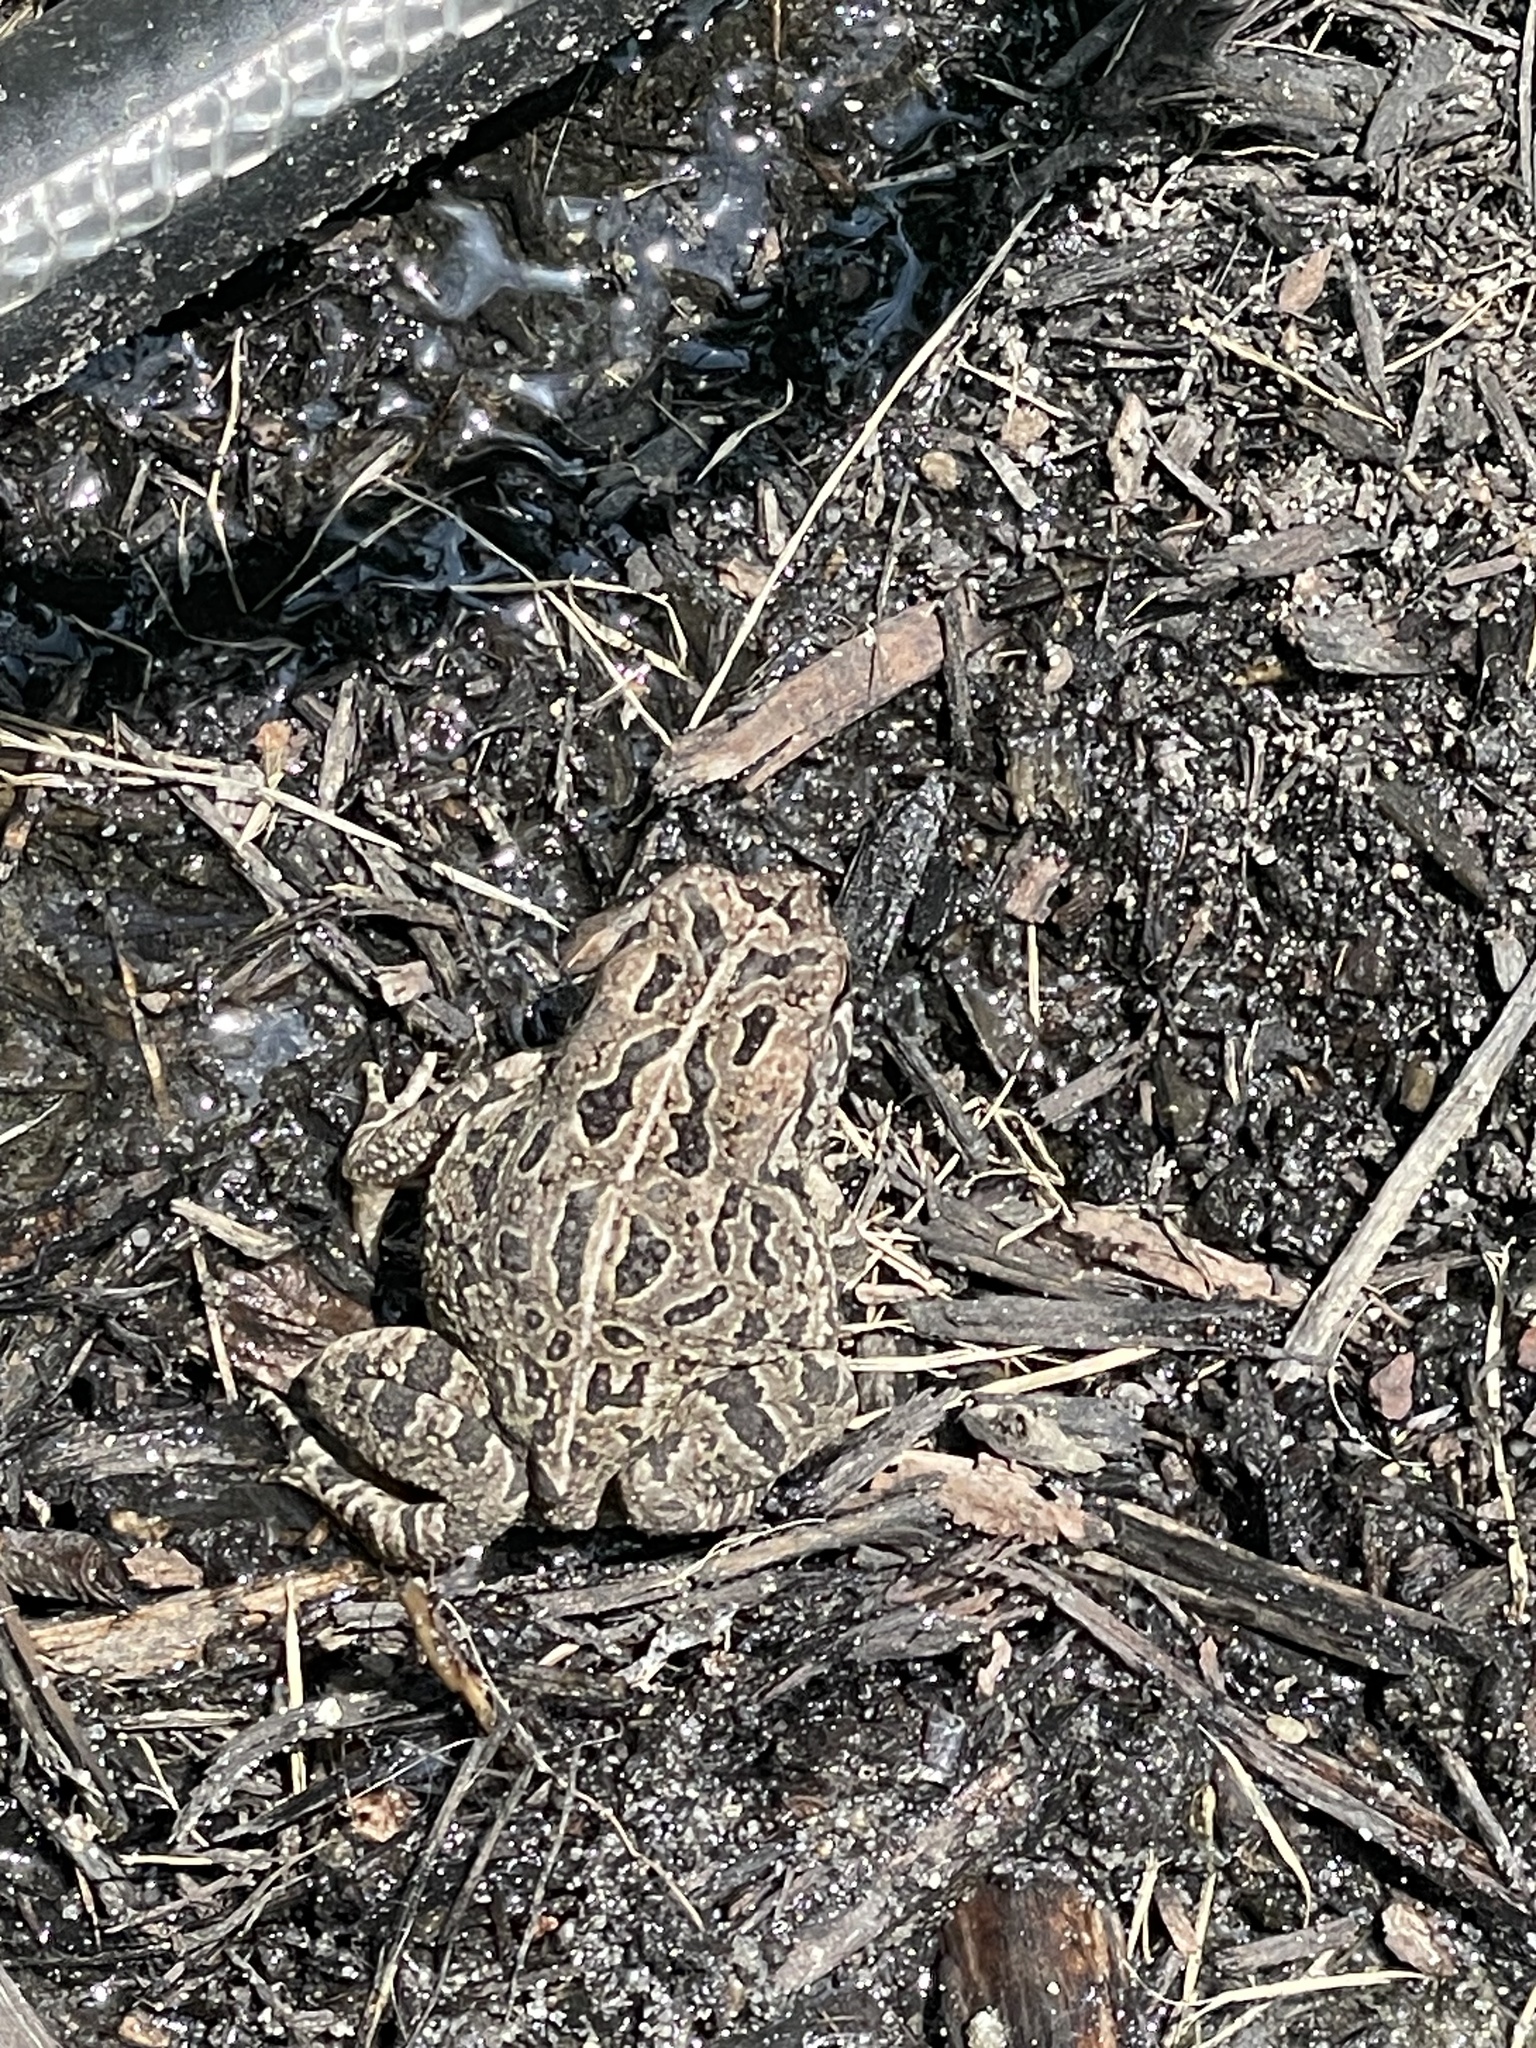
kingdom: Animalia
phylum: Chordata
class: Amphibia
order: Anura
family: Bufonidae
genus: Anaxyrus
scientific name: Anaxyrus fowleri
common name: Fowler's toad
